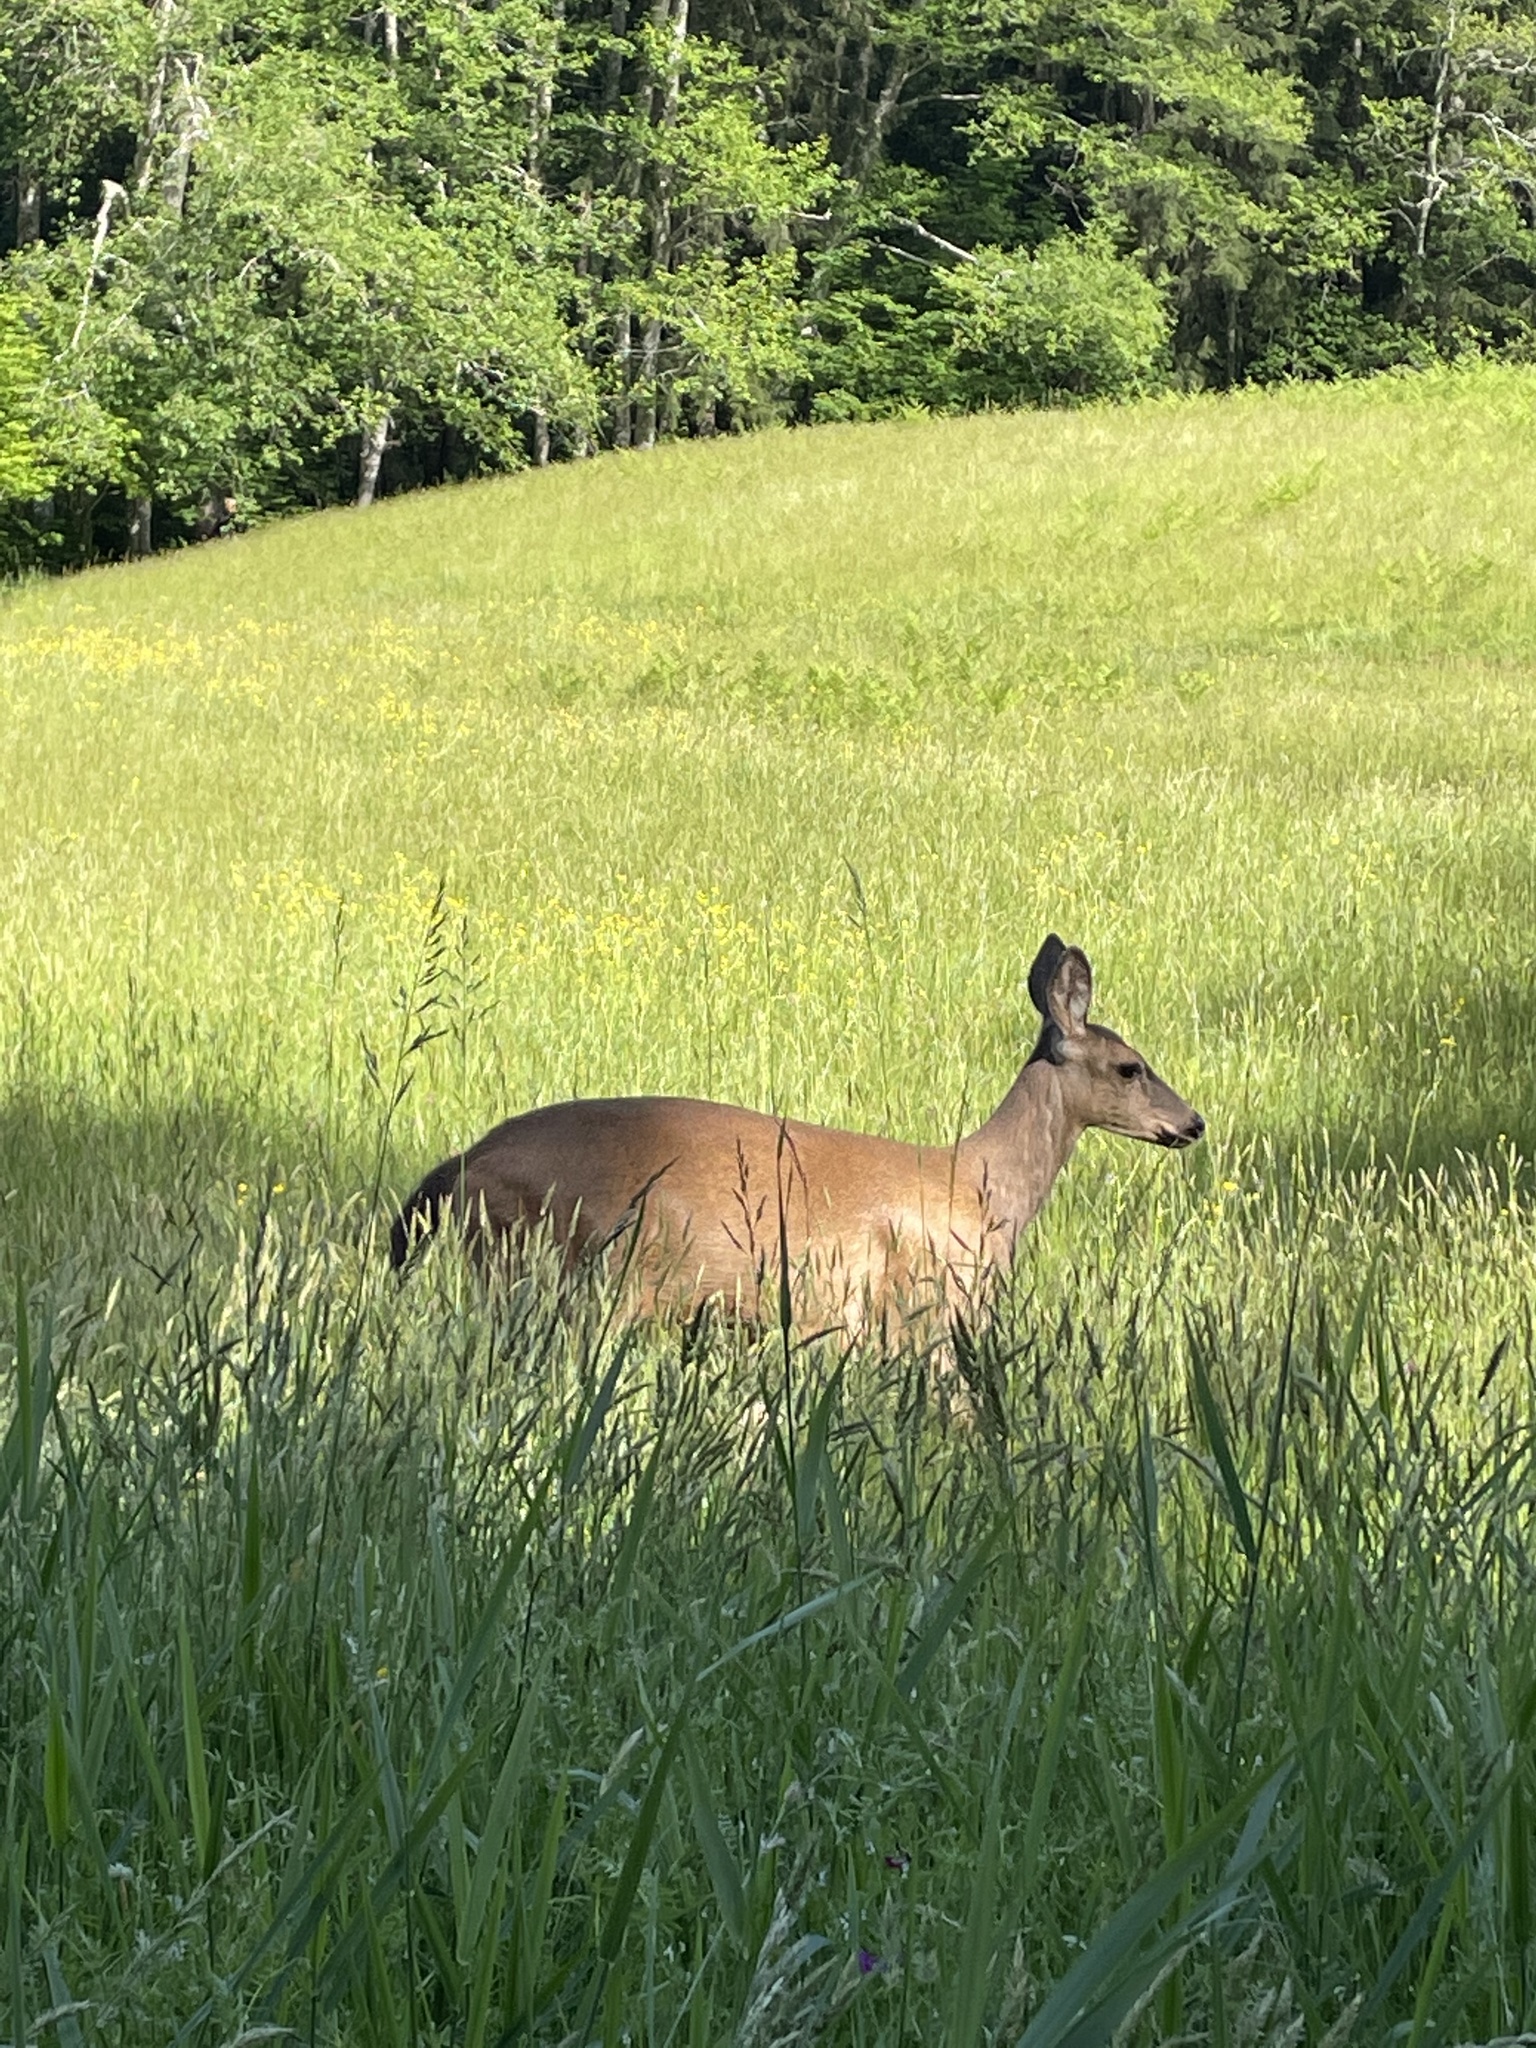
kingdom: Animalia
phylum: Chordata
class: Mammalia
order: Artiodactyla
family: Cervidae
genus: Odocoileus
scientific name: Odocoileus hemionus
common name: Mule deer
